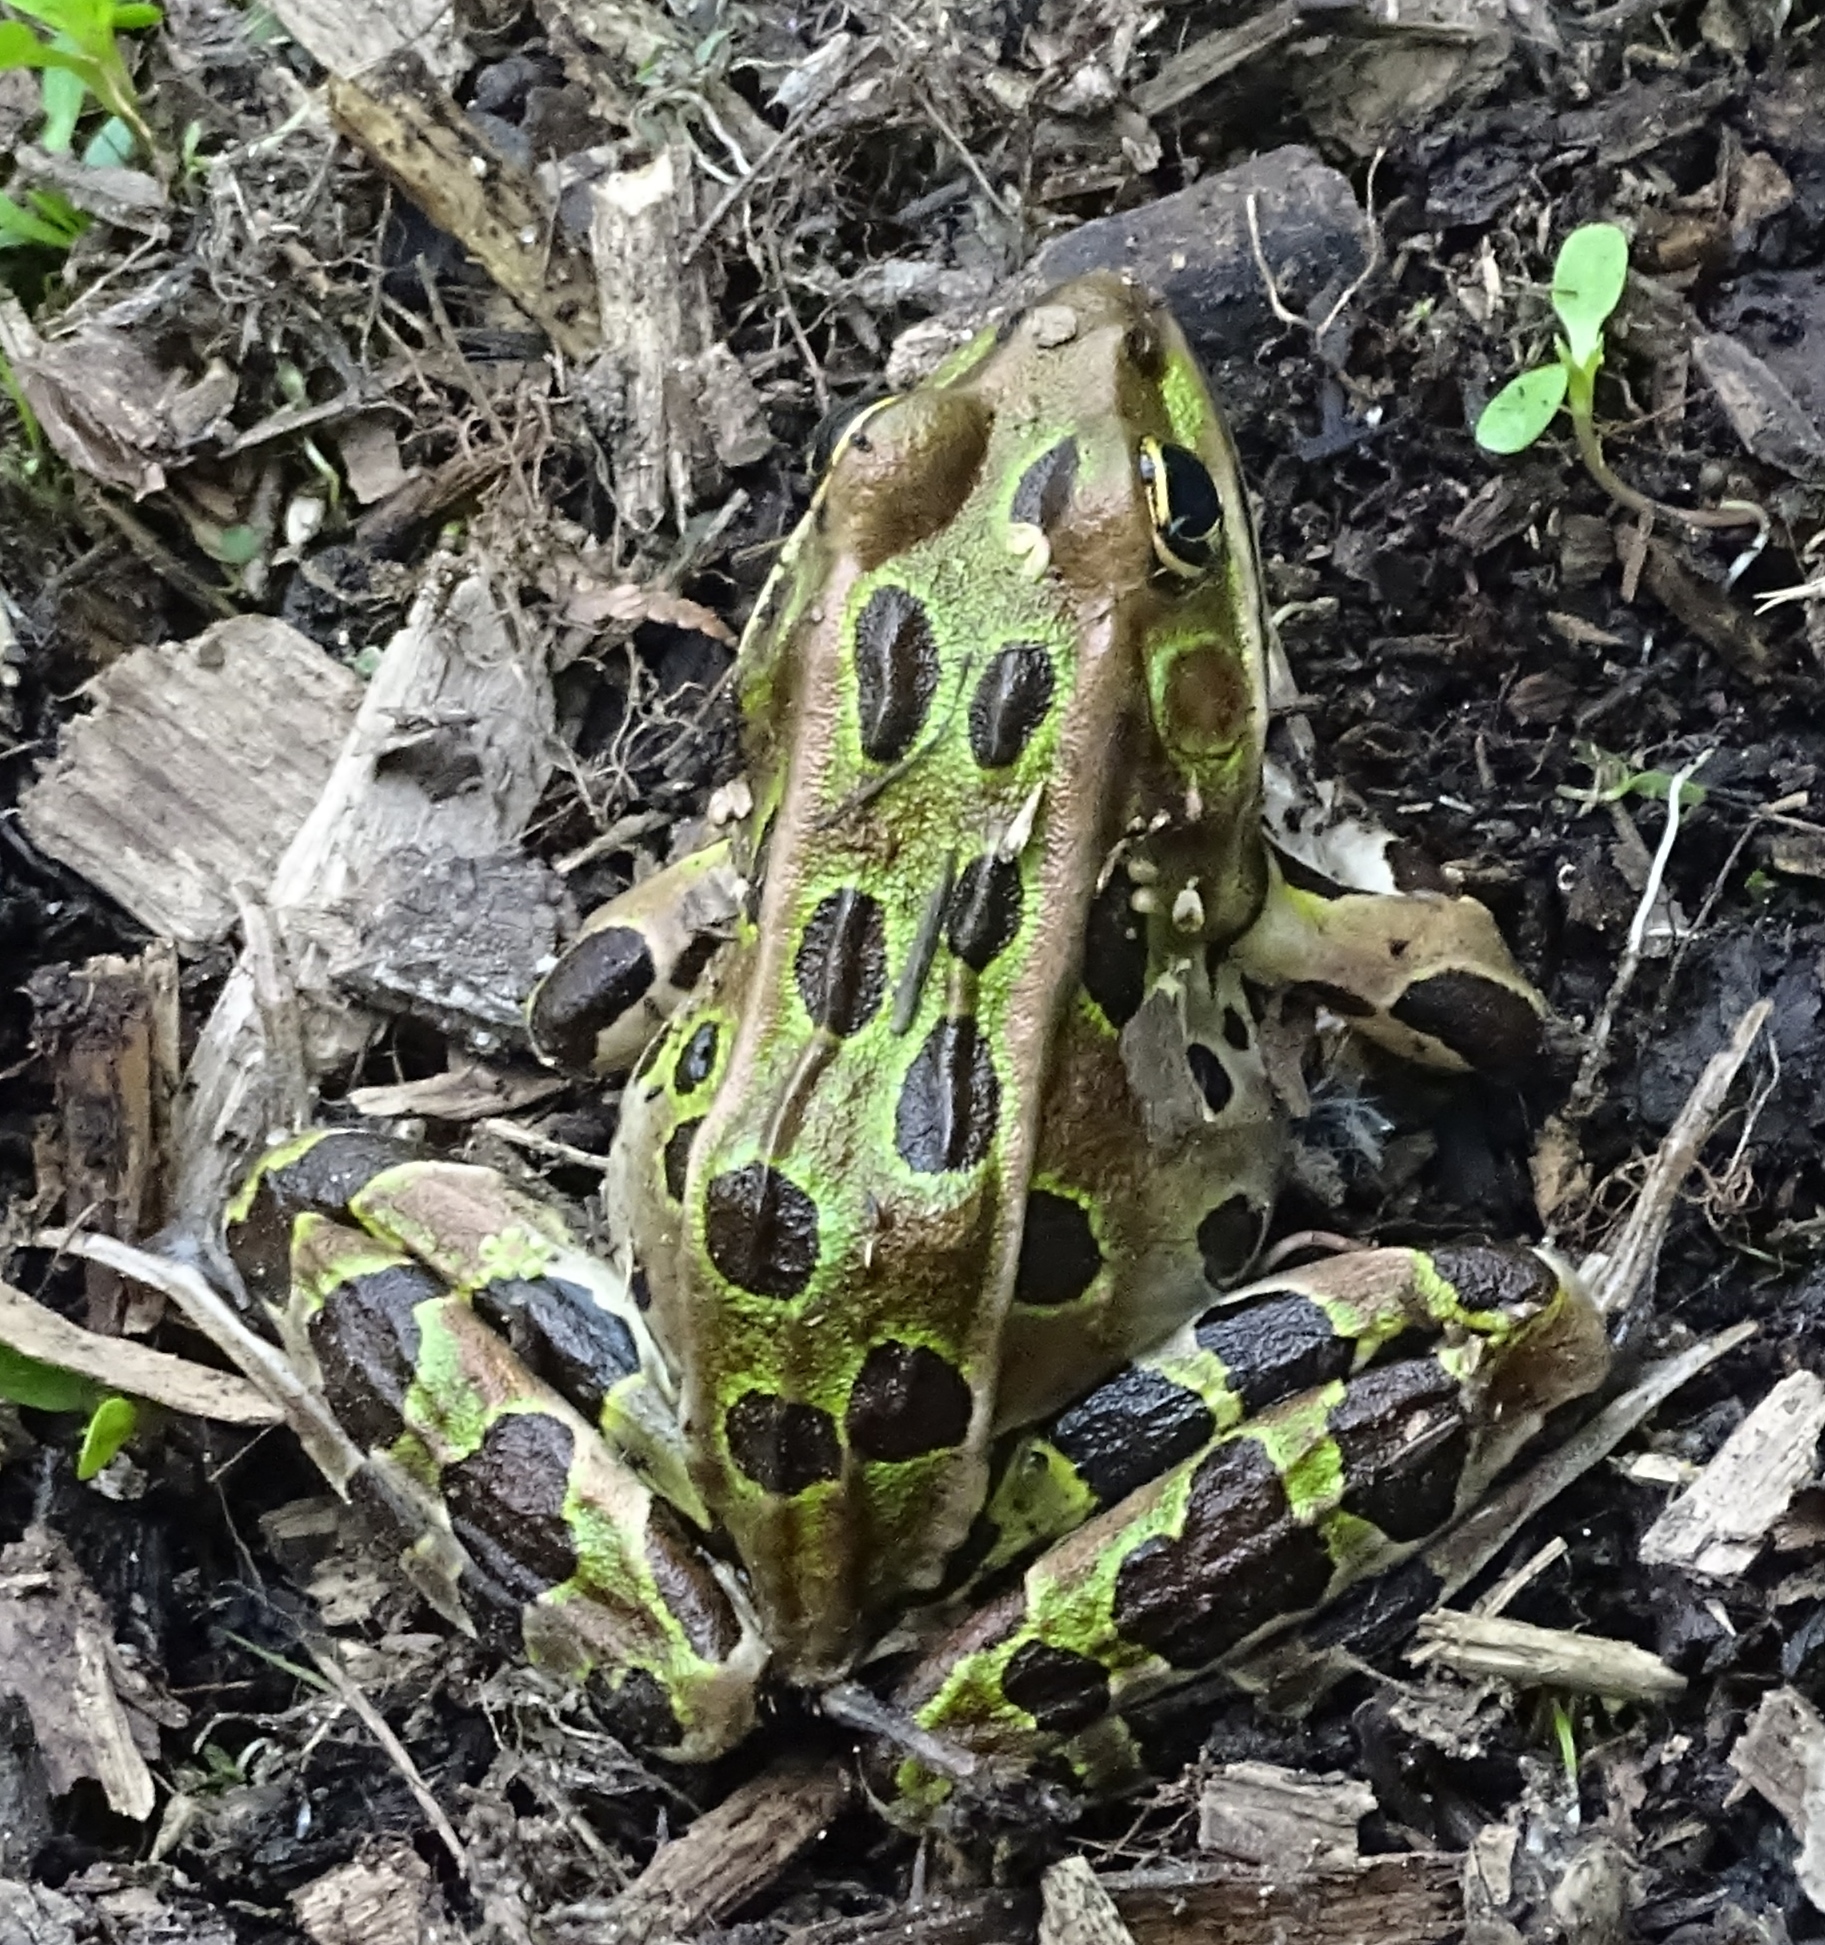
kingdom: Animalia
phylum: Chordata
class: Amphibia
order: Anura
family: Ranidae
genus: Lithobates
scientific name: Lithobates pipiens
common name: Northern leopard frog
